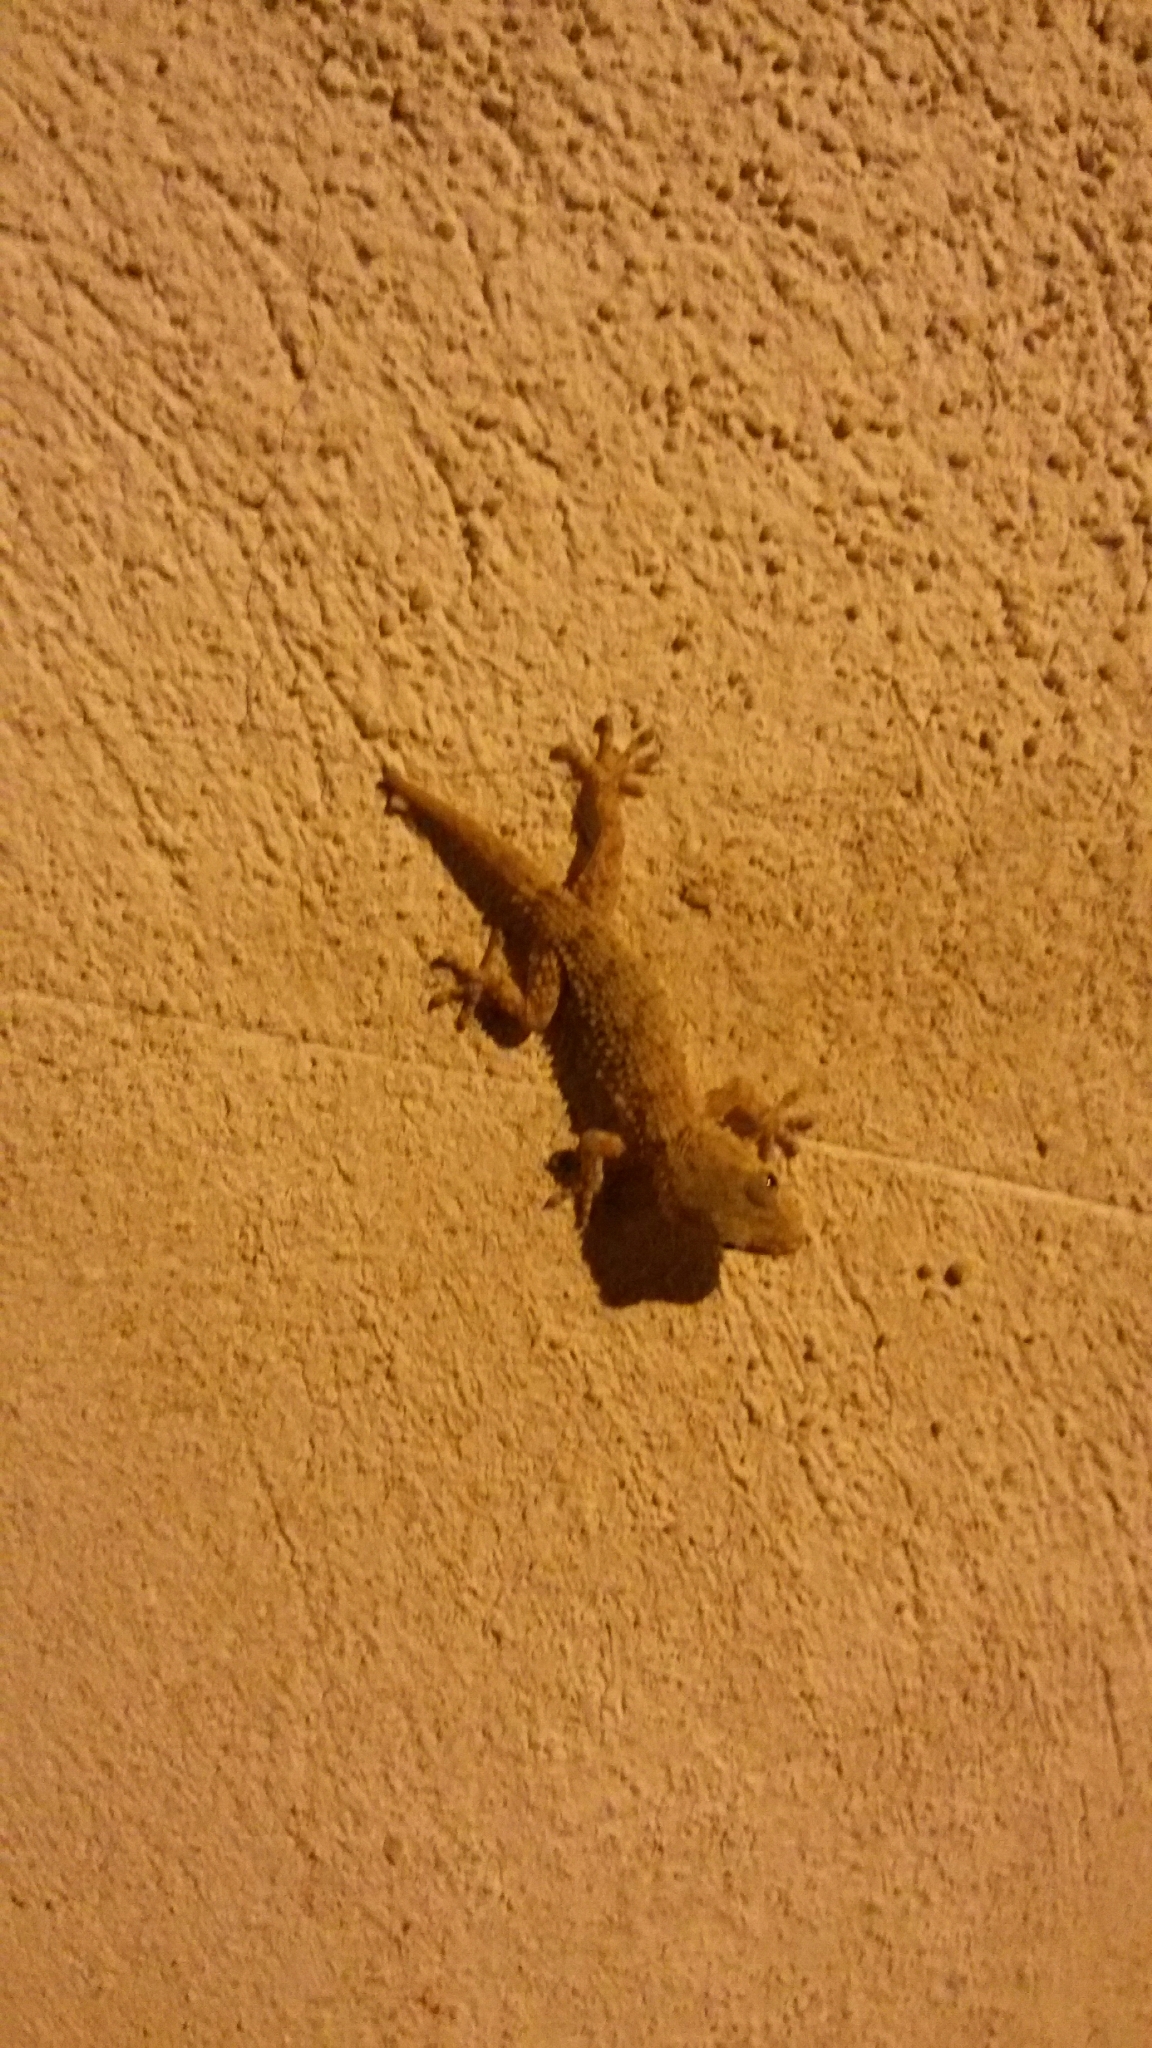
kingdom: Animalia
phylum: Chordata
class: Squamata
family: Phyllodactylidae
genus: Tarentola
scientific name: Tarentola mauritanica
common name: Moorish gecko
